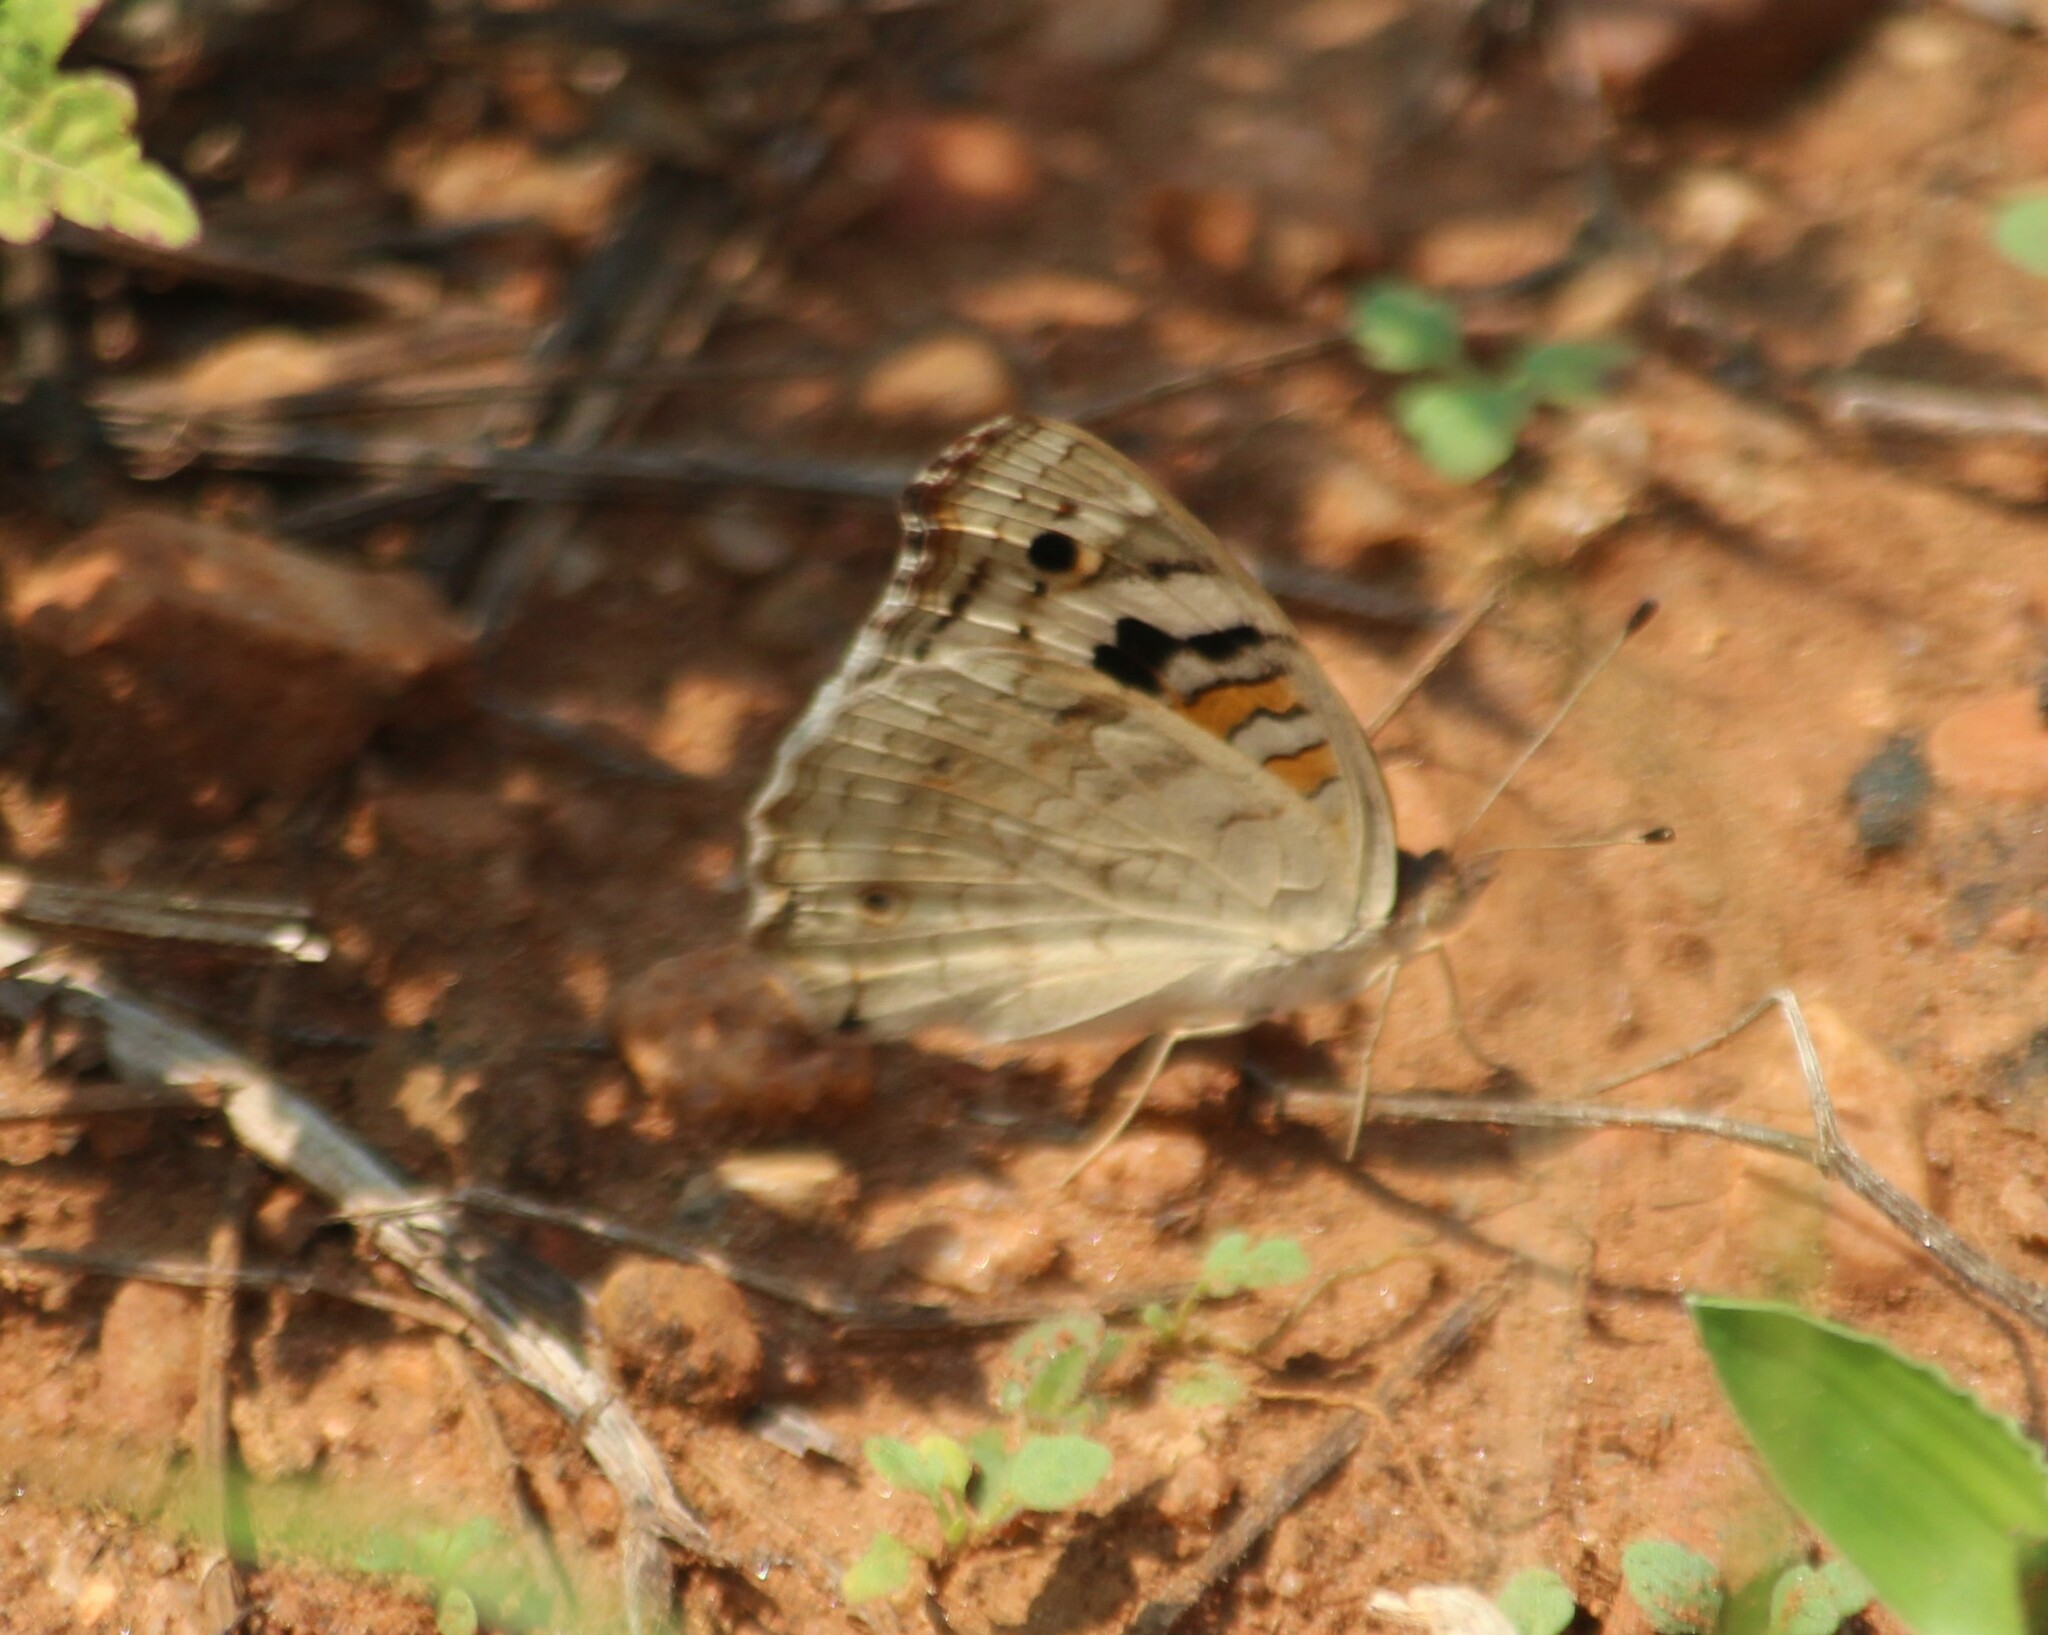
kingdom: Animalia
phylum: Arthropoda
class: Insecta
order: Lepidoptera
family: Nymphalidae
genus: Junonia
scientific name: Junonia orithya
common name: Blue pansy
